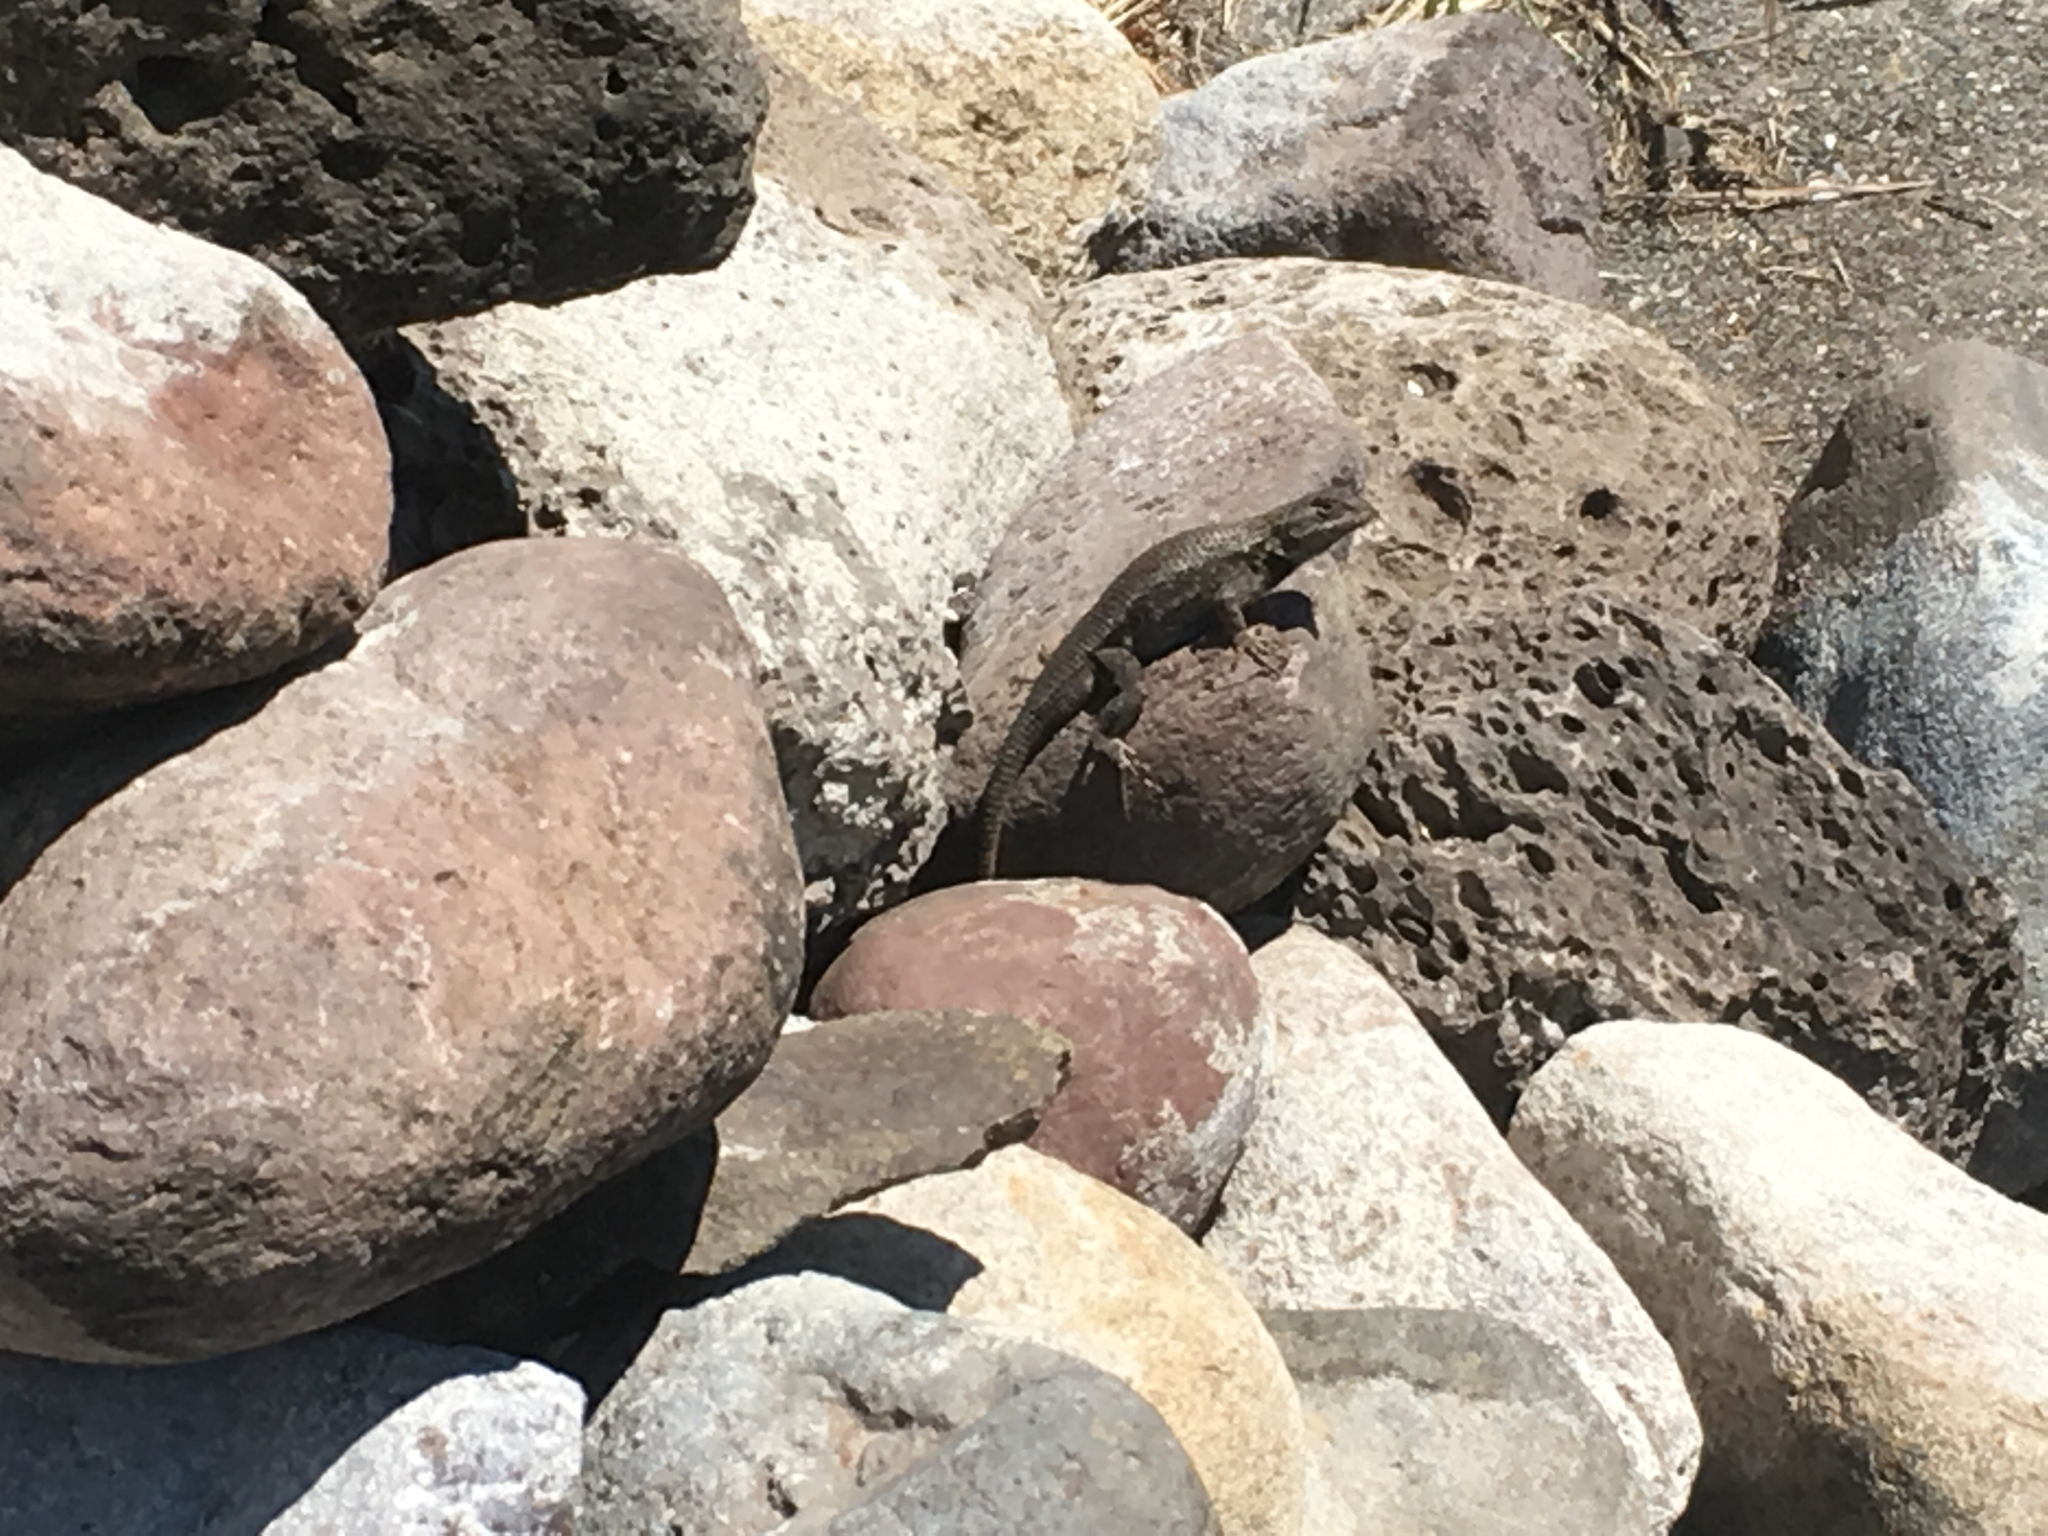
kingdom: Animalia
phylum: Chordata
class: Squamata
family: Phrynosomatidae
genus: Sceloporus
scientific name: Sceloporus occidentalis
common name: Western fence lizard
